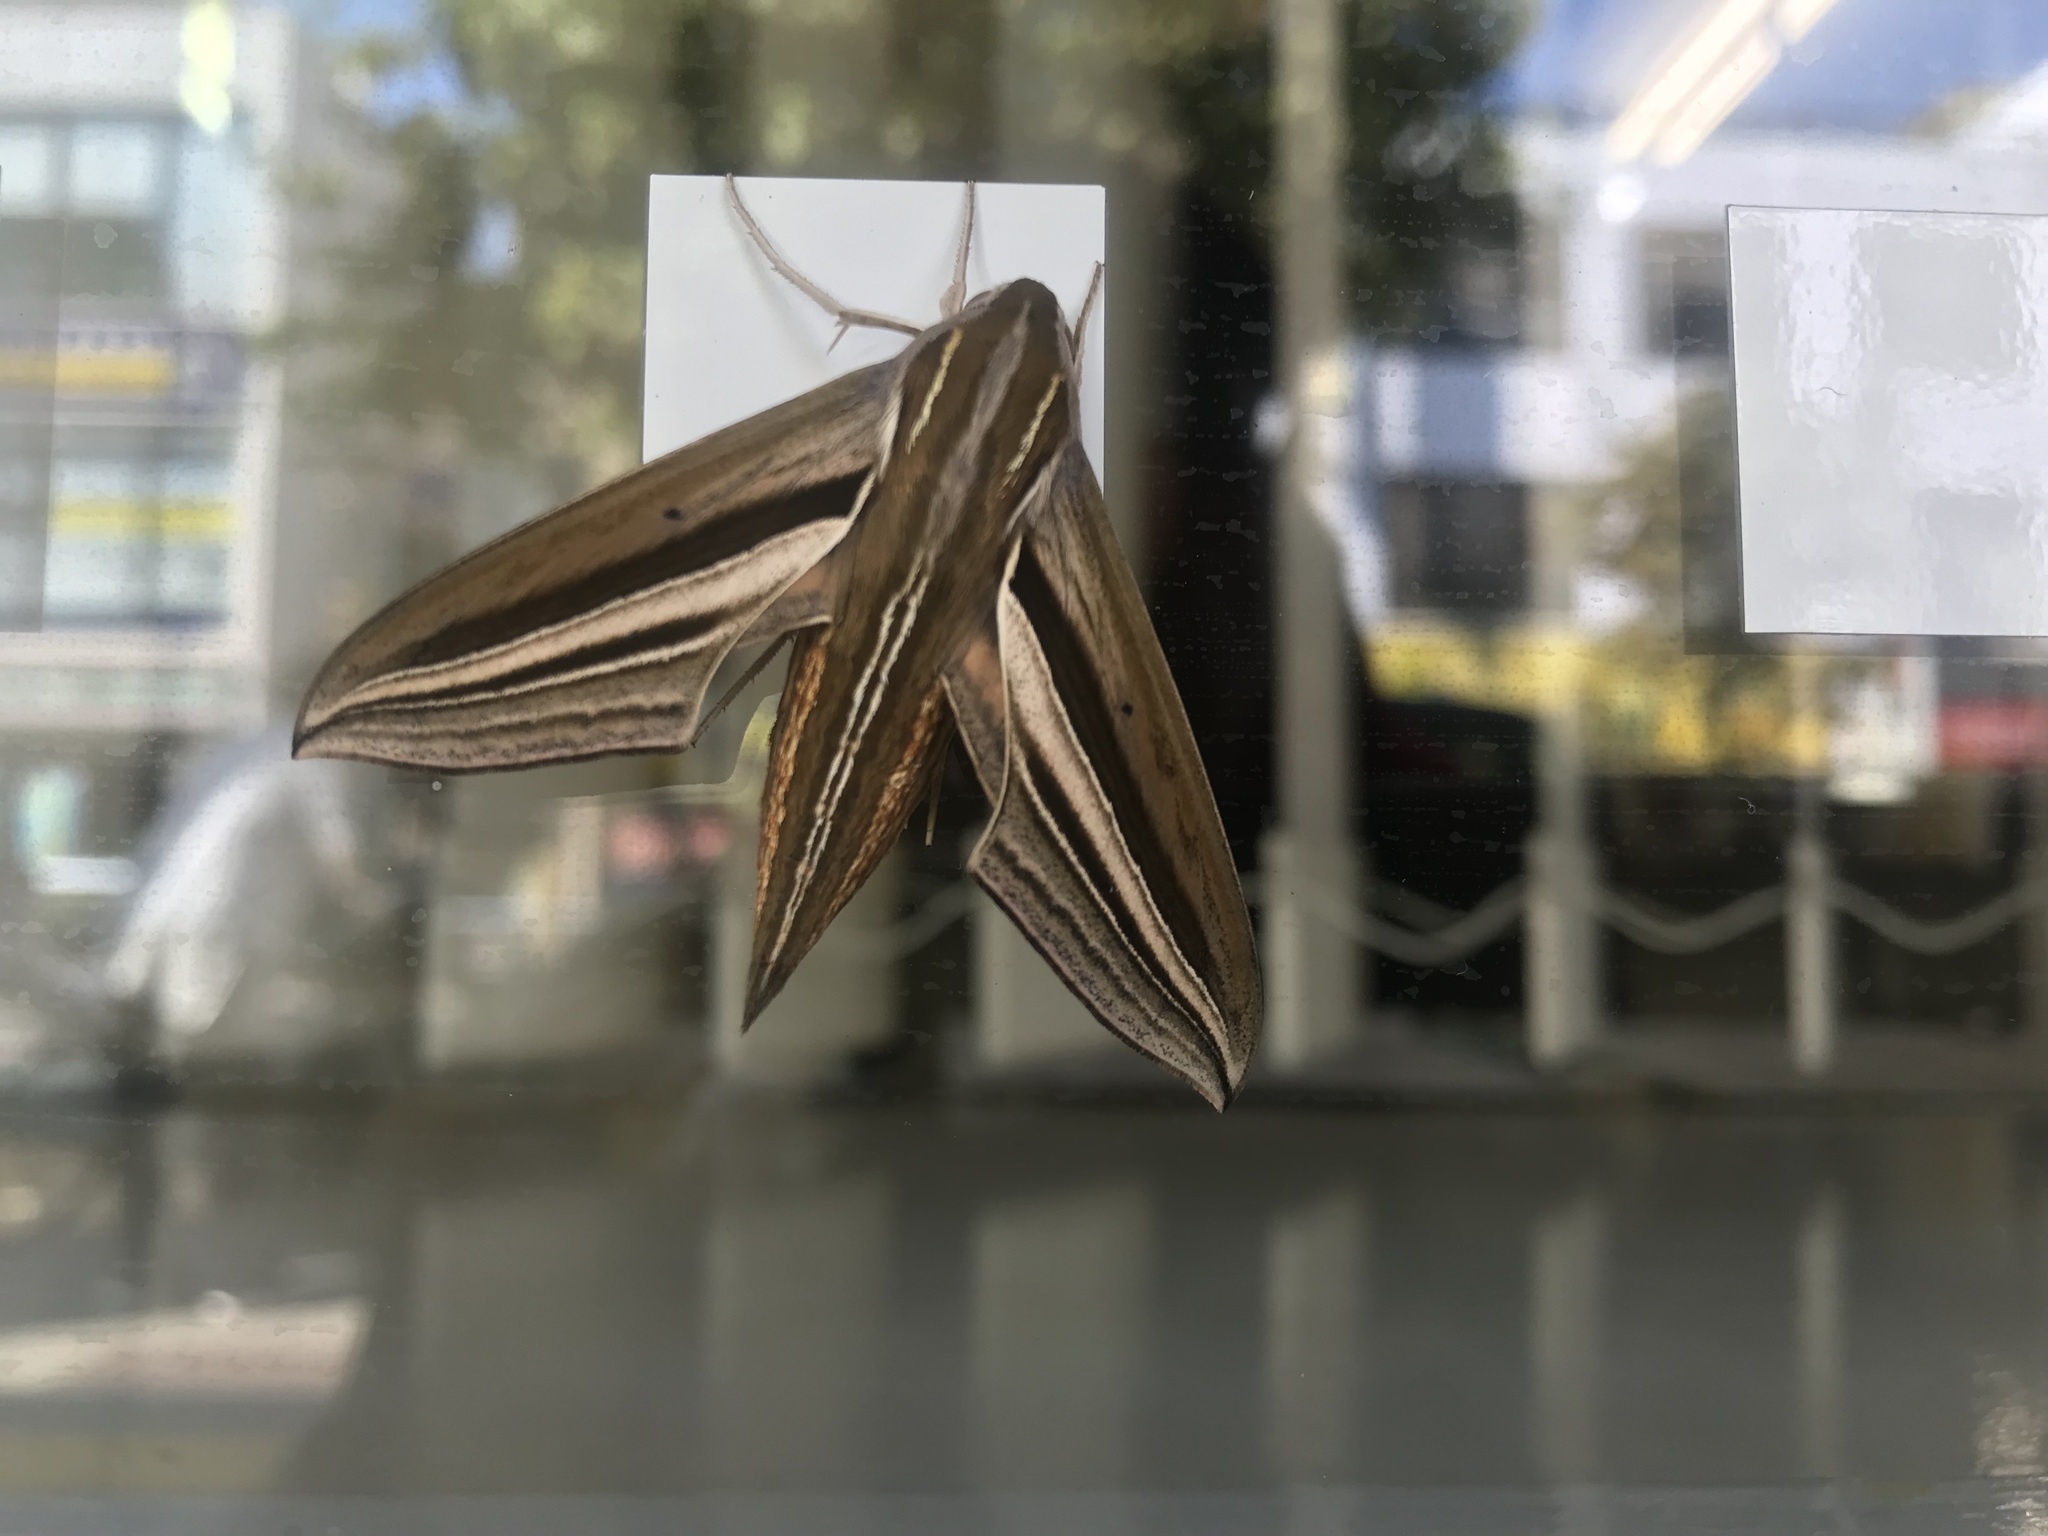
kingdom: Animalia
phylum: Arthropoda
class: Insecta
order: Lepidoptera
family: Sphingidae
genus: Theretra
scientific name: Theretra oldenlandiae
